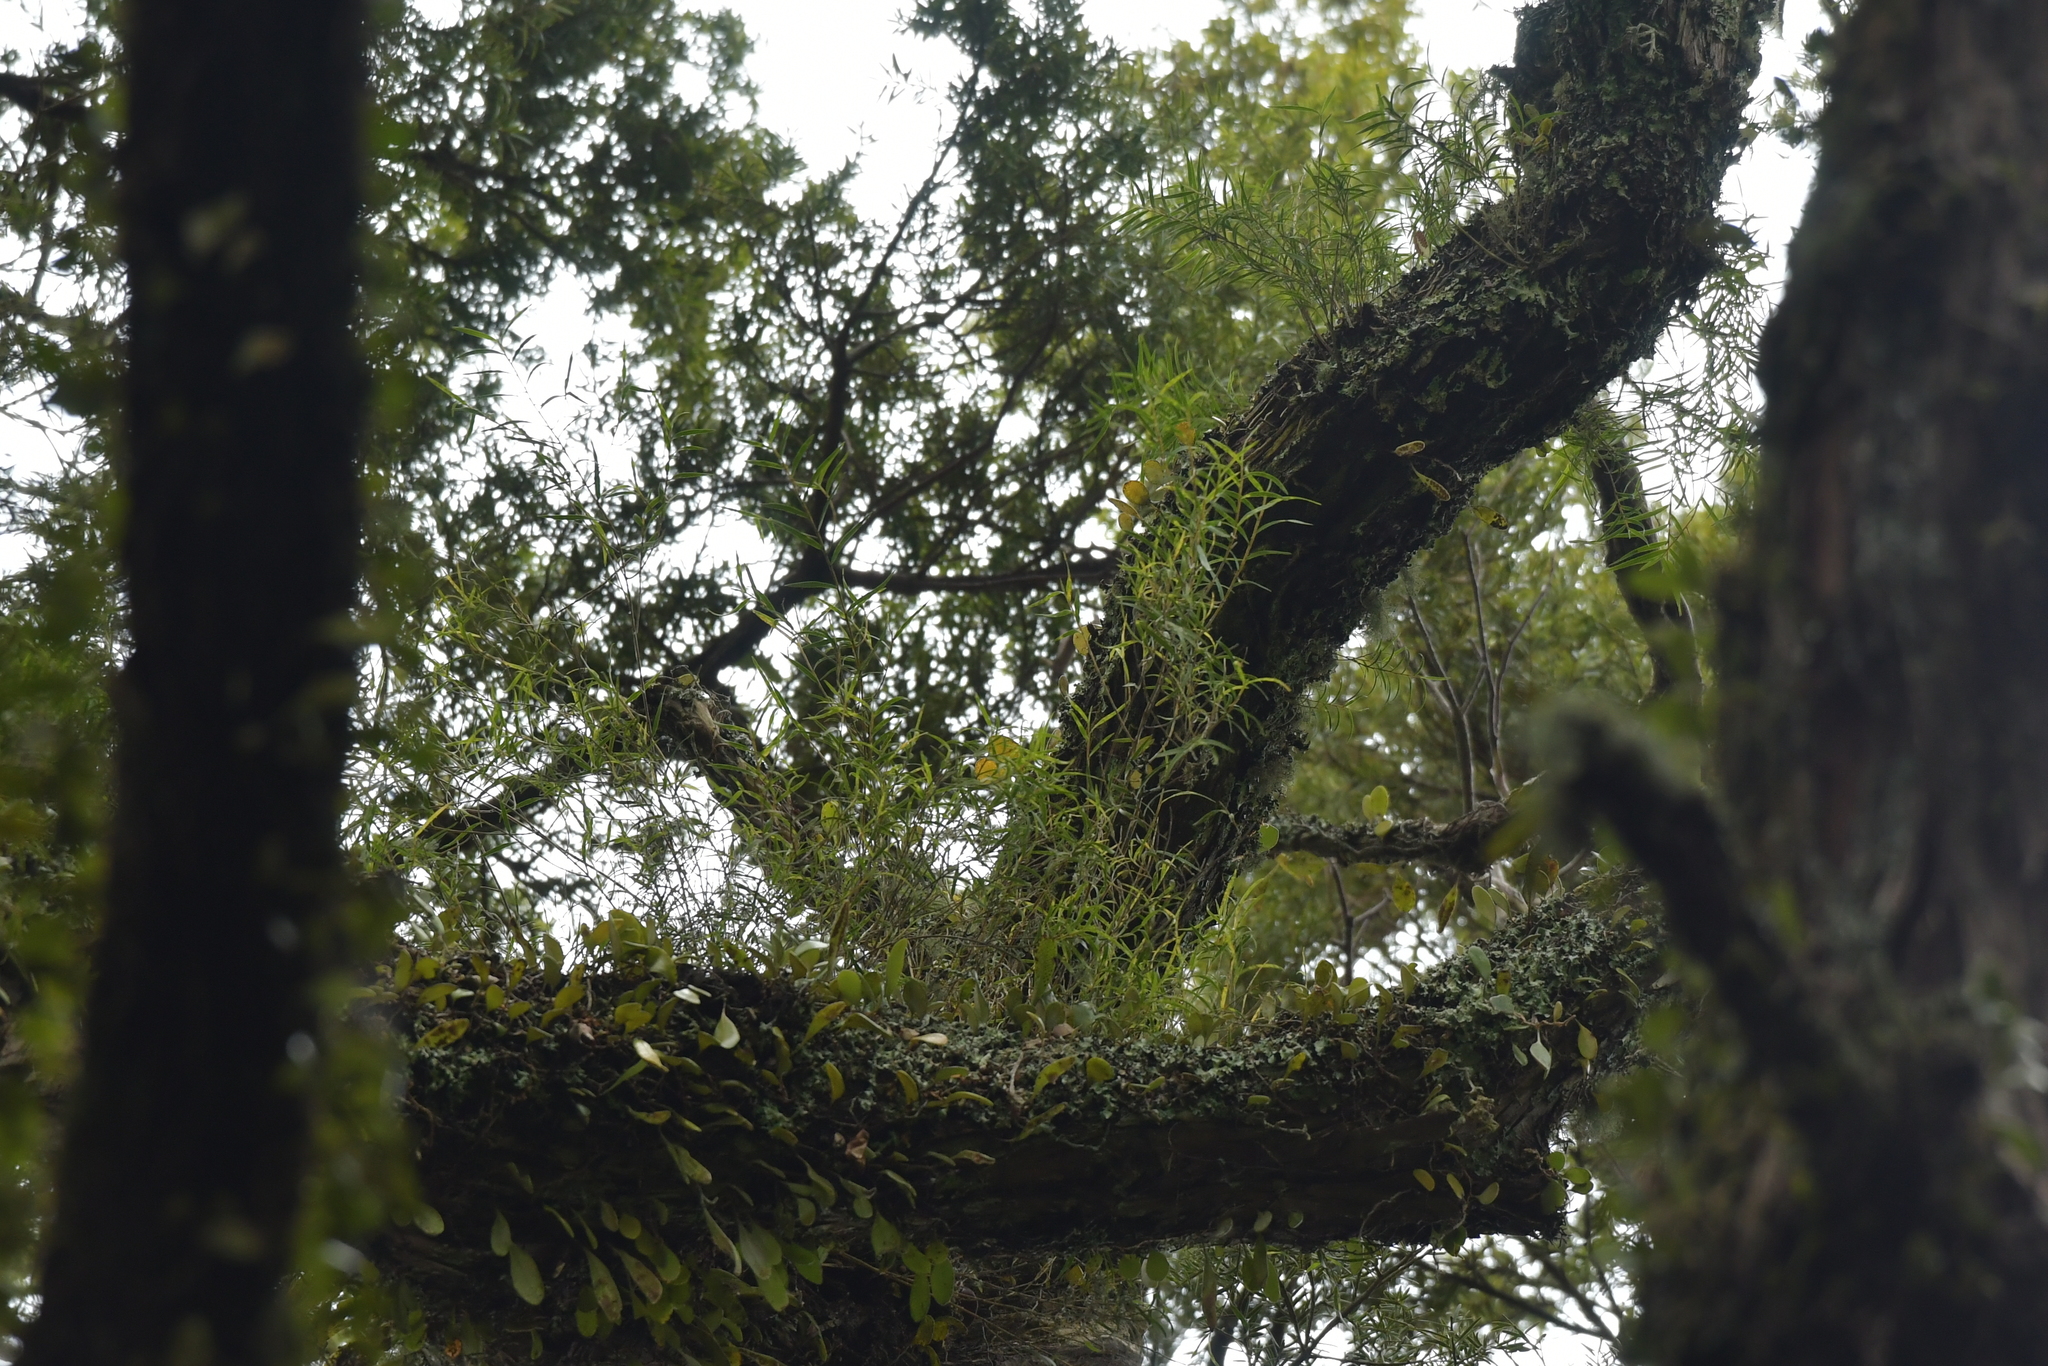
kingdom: Plantae
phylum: Tracheophyta
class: Liliopsida
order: Asparagales
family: Orchidaceae
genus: Dendrobium
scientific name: Dendrobium cunninghamii
